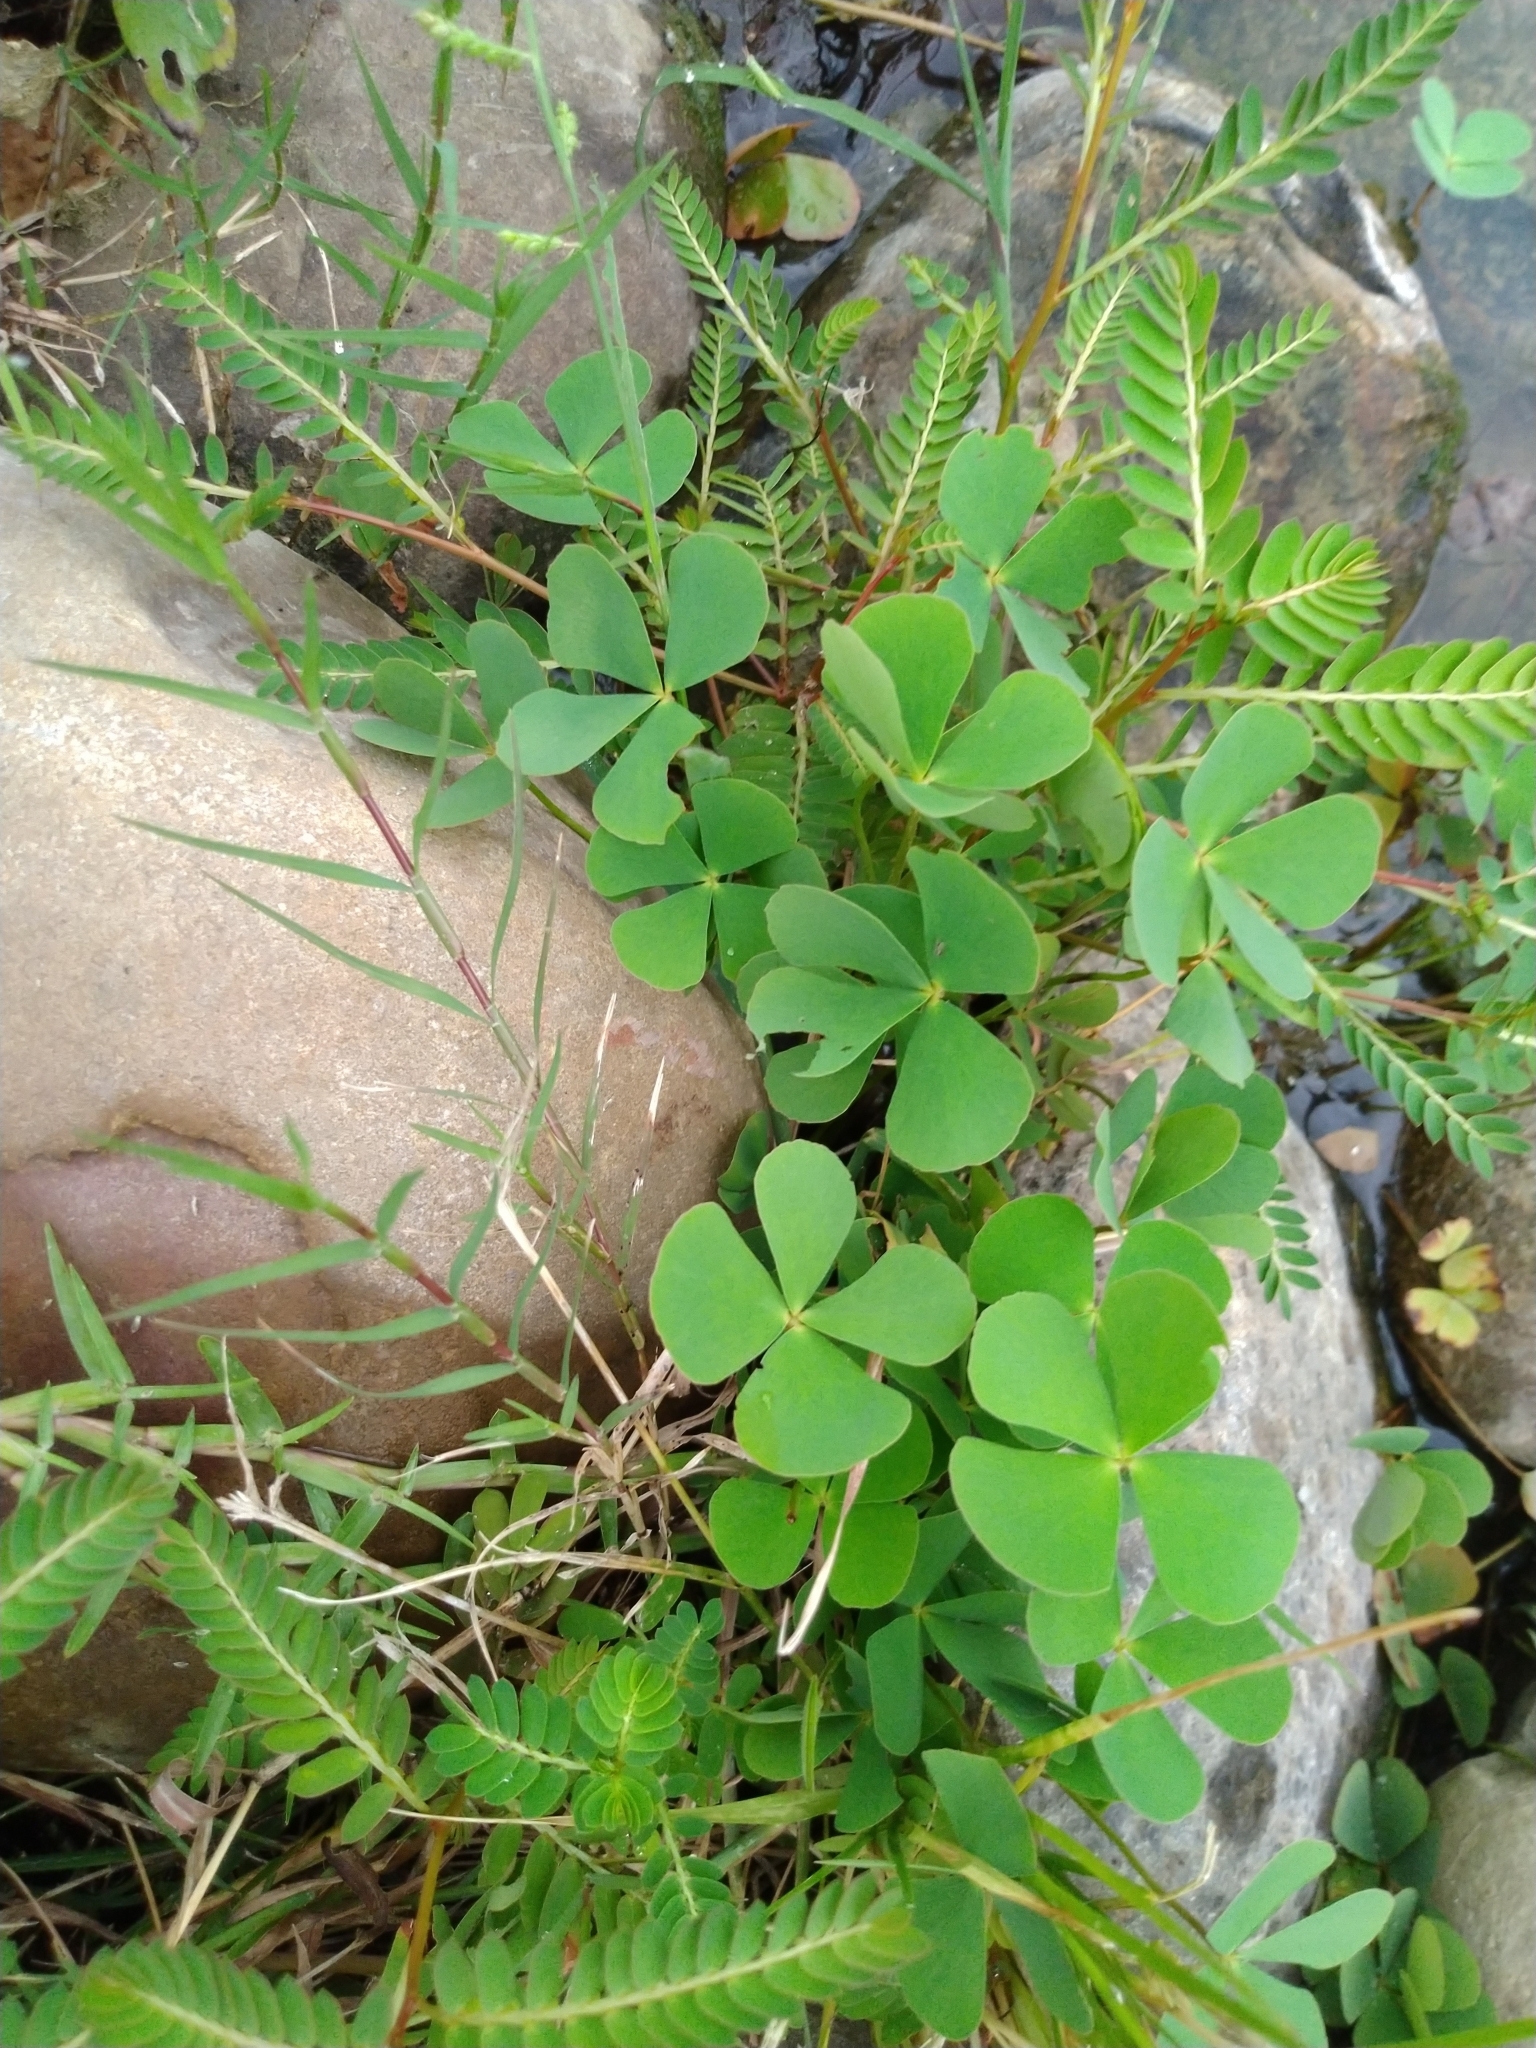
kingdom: Plantae
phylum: Tracheophyta
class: Polypodiopsida
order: Salviniales
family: Marsileaceae
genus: Marsilea
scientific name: Marsilea minuta
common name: Dwarf waterclover
